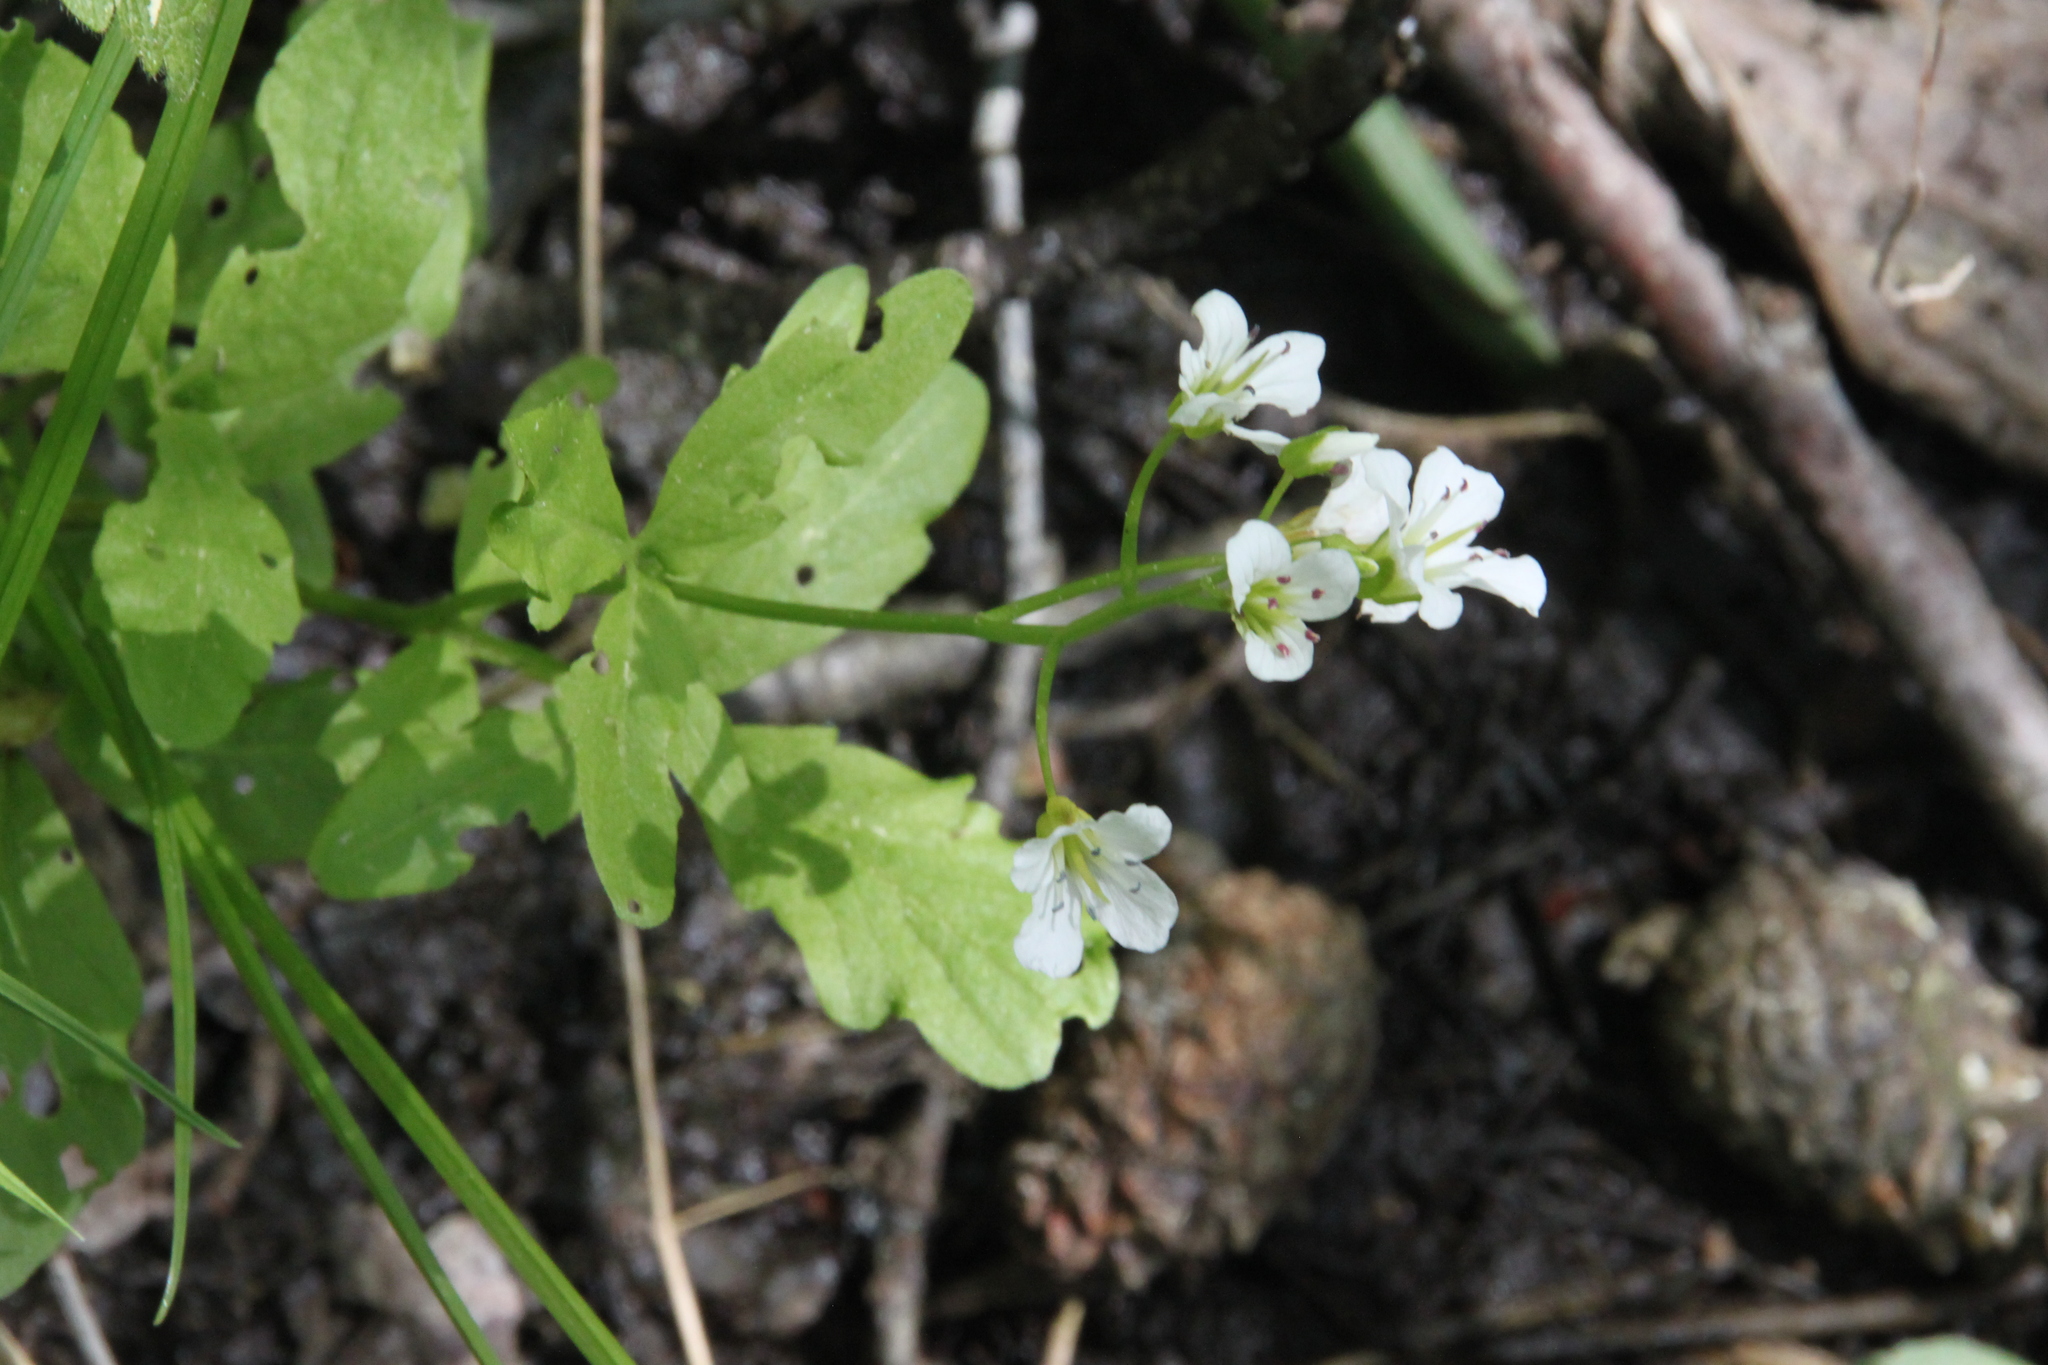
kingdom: Plantae
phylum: Tracheophyta
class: Magnoliopsida
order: Brassicales
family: Brassicaceae
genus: Cardamine
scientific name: Cardamine amara
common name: Large bitter-cress
